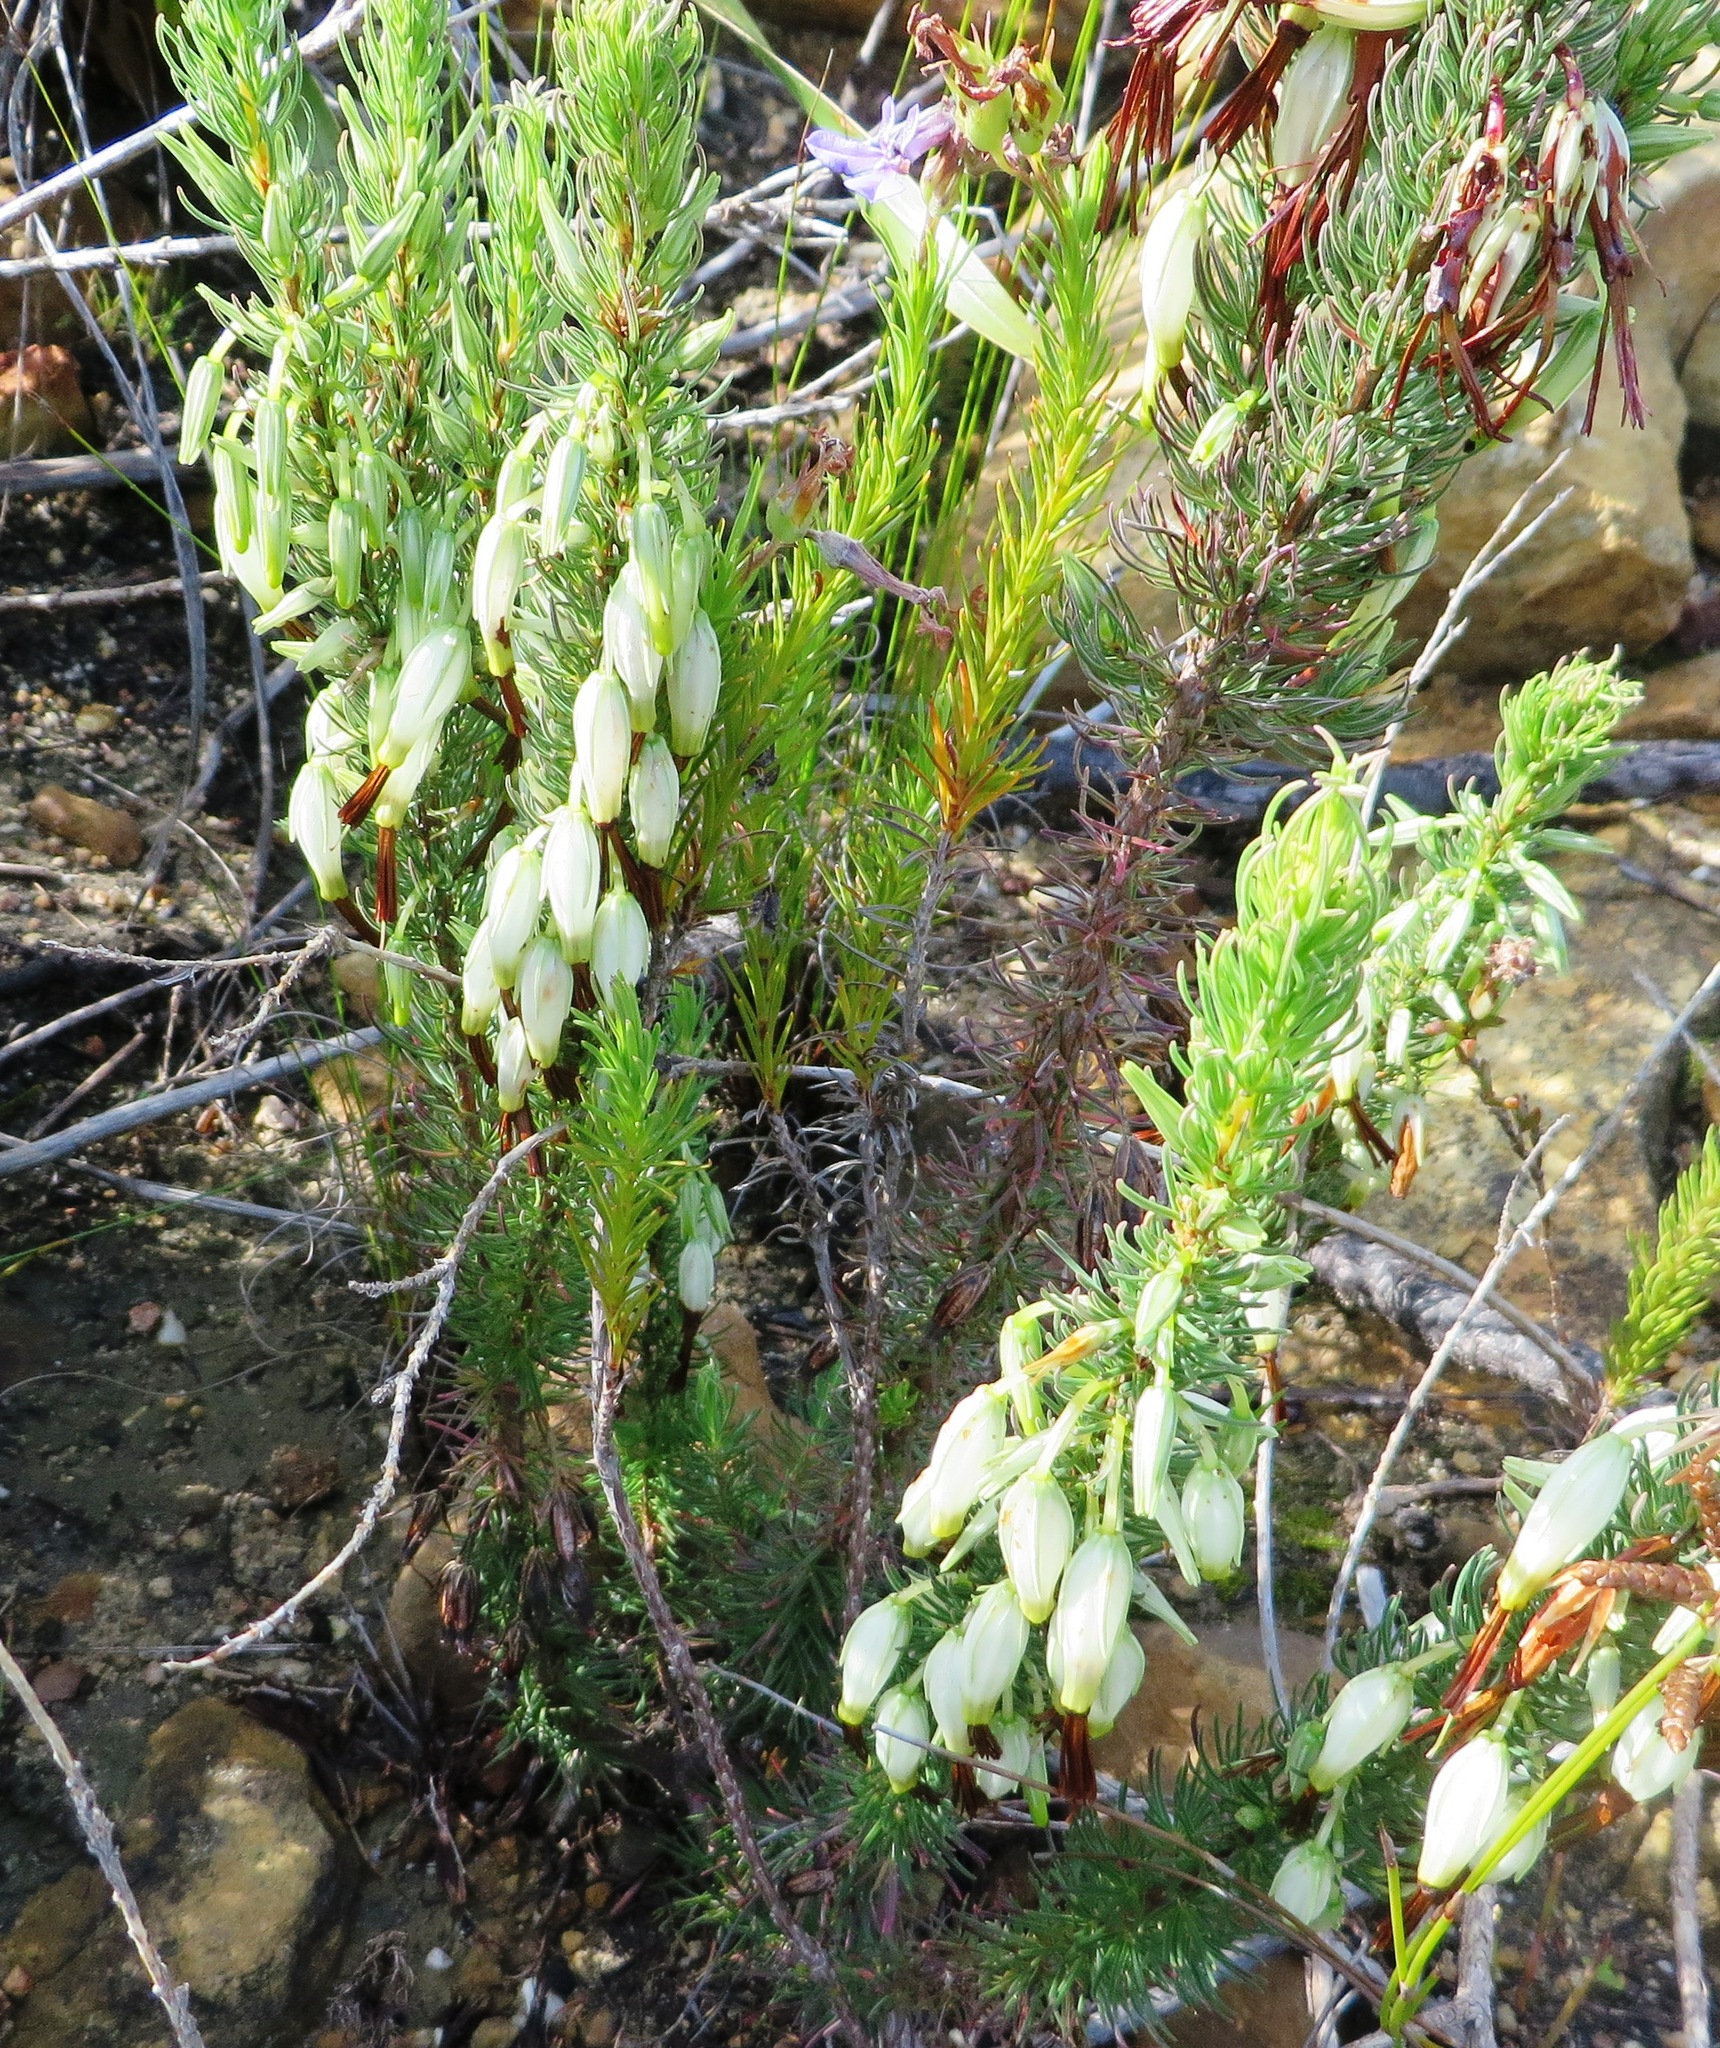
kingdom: Plantae
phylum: Tracheophyta
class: Magnoliopsida
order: Ericales
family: Ericaceae
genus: Erica
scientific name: Erica plukenetii
